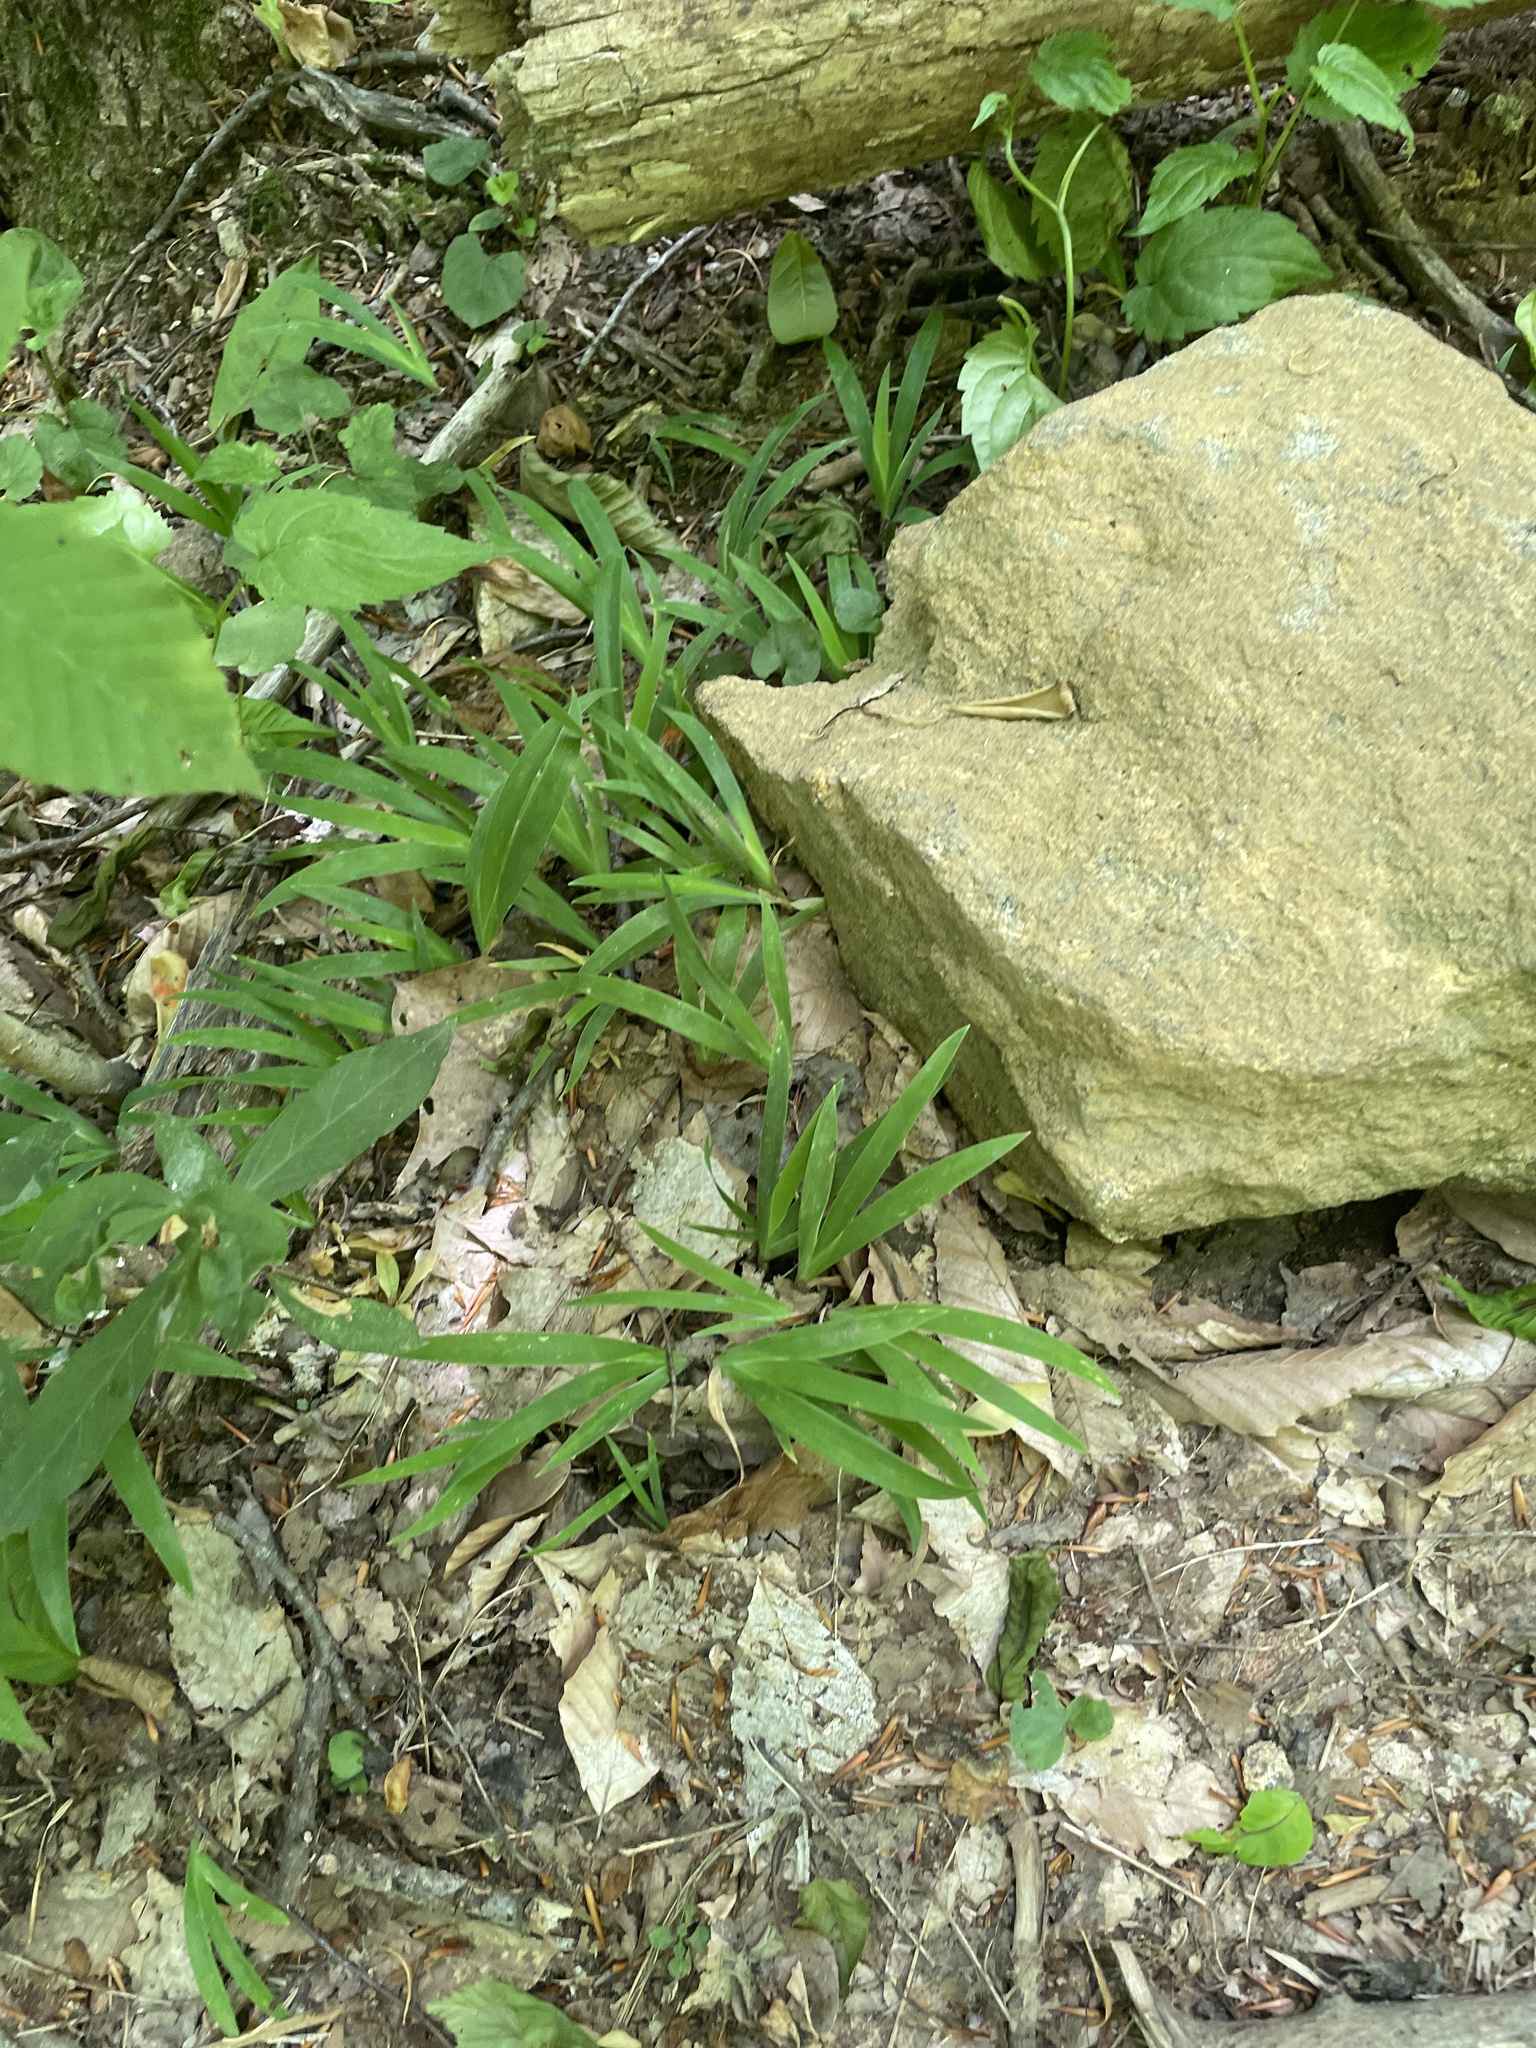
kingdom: Plantae
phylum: Tracheophyta
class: Liliopsida
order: Asparagales
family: Iridaceae
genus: Iris
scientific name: Iris cristata
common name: Crested iris
